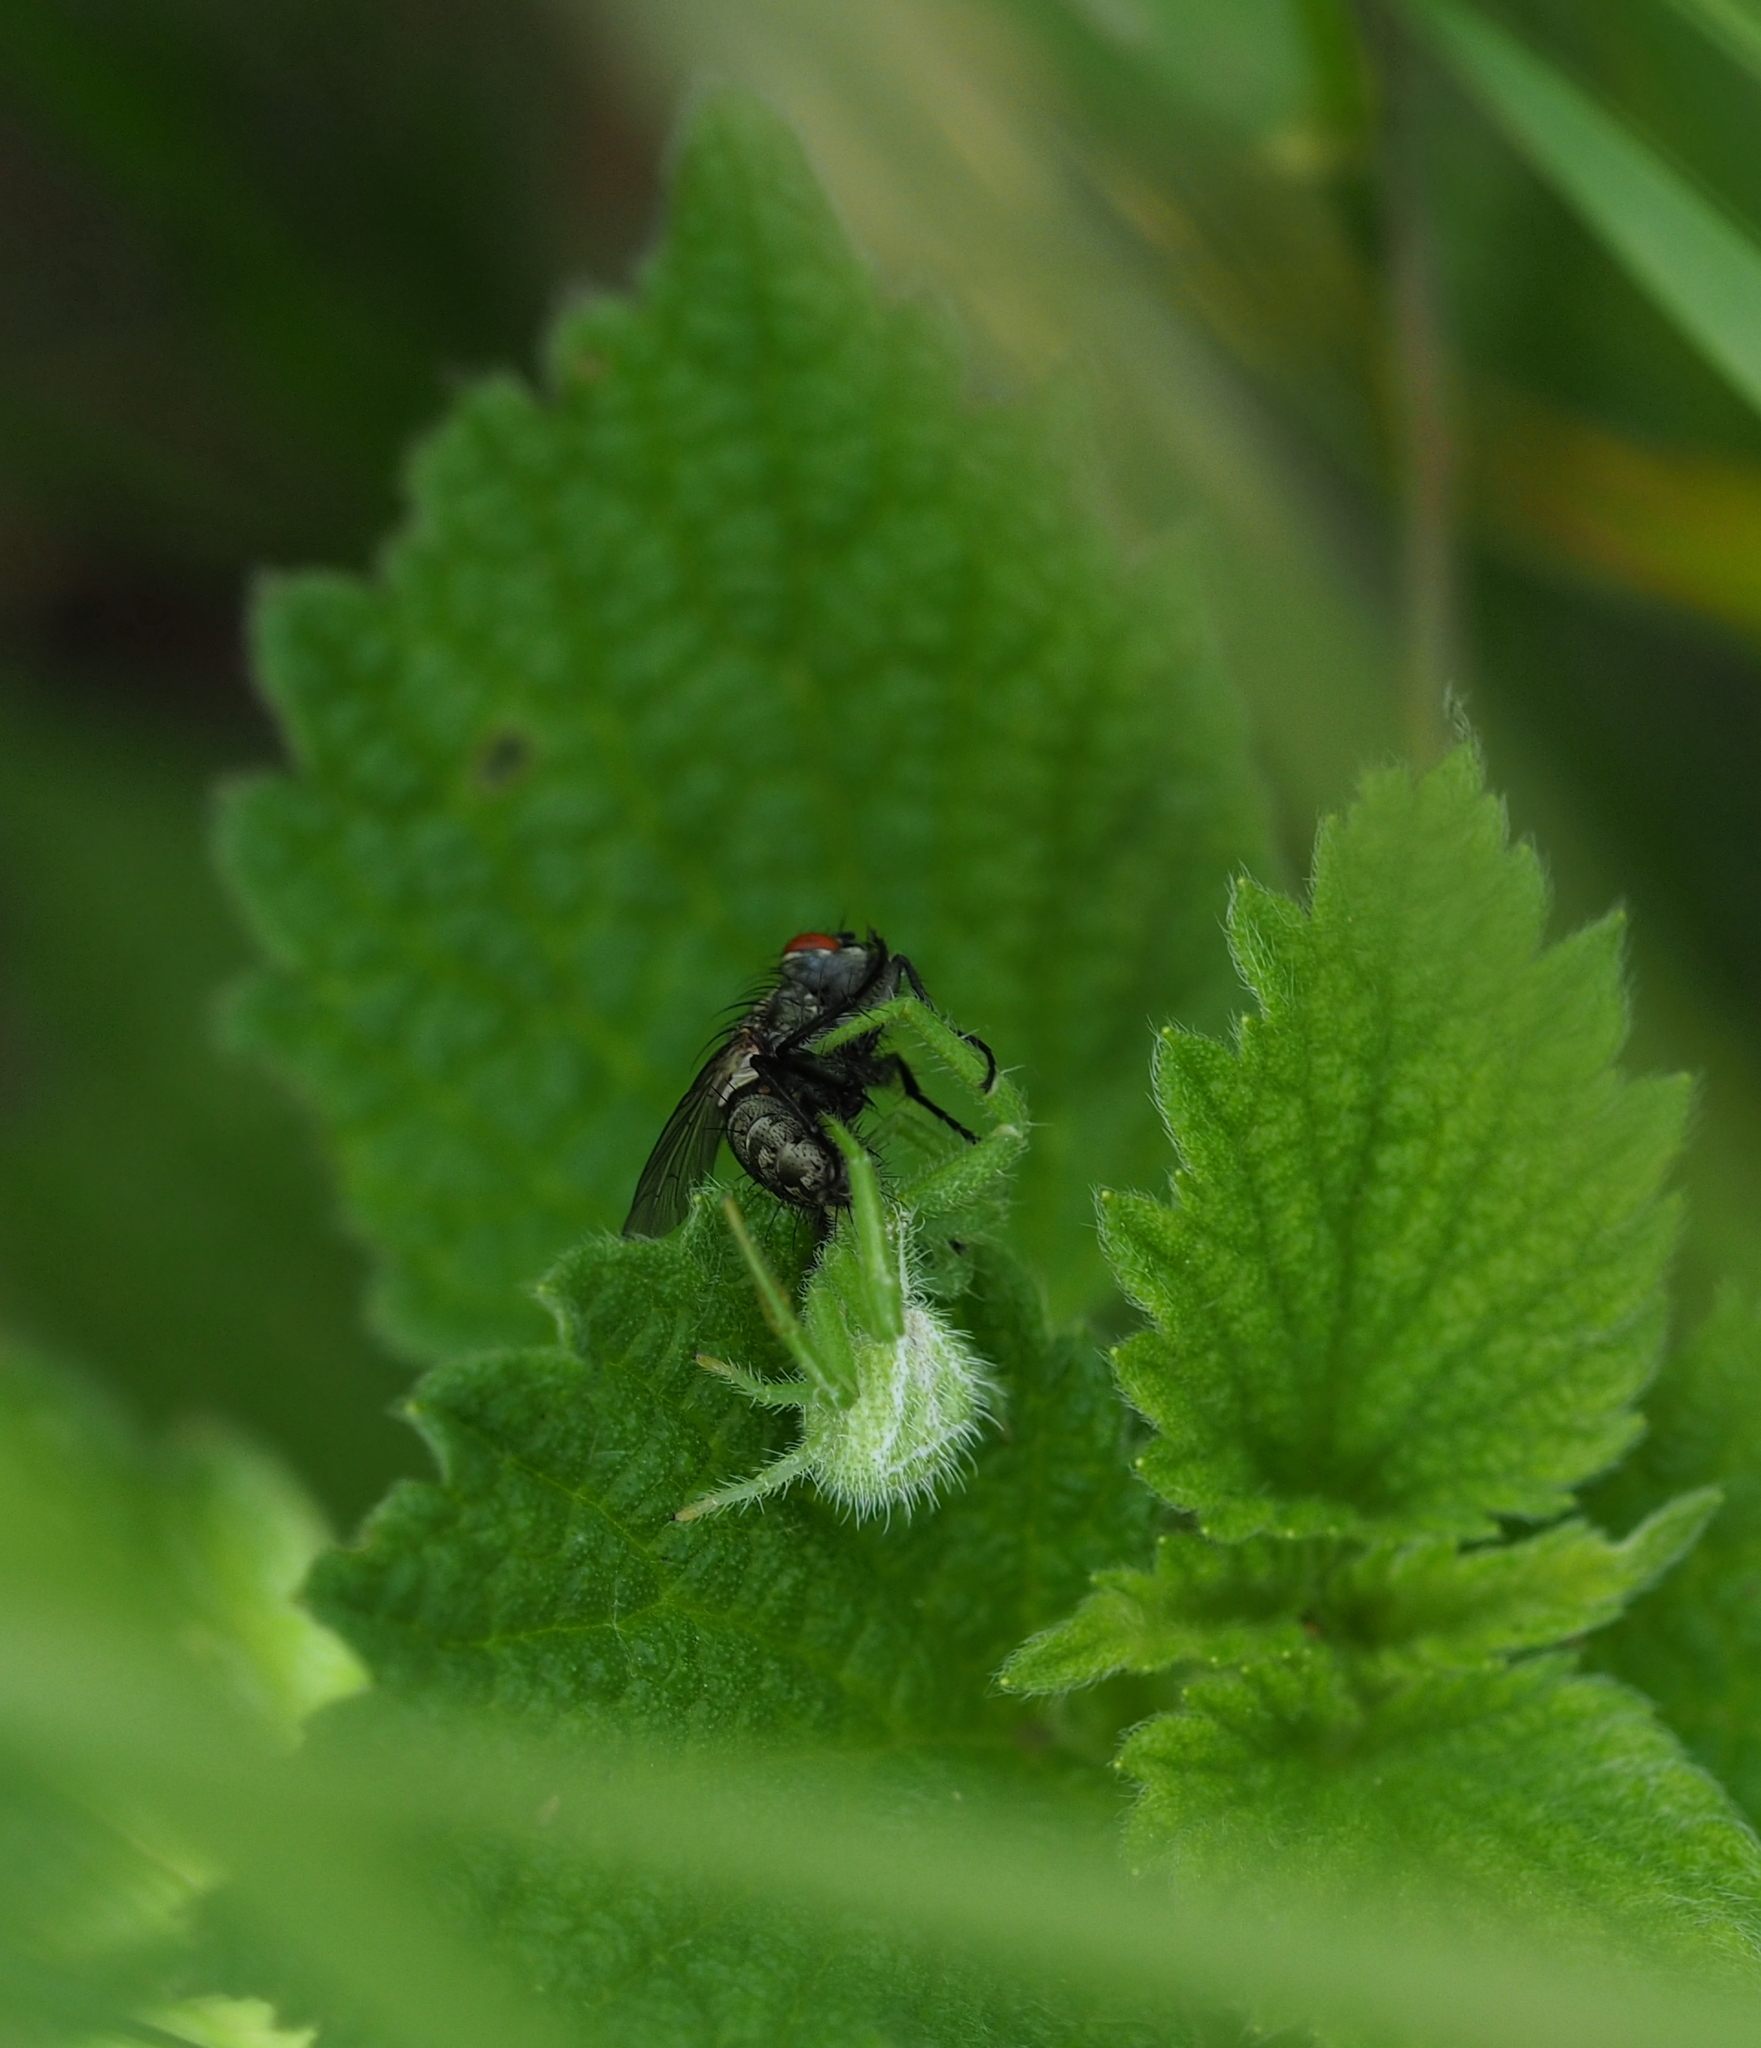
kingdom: Animalia
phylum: Arthropoda
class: Arachnida
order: Araneae
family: Thomisidae
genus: Heriaeus
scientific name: Heriaeus graminicola
